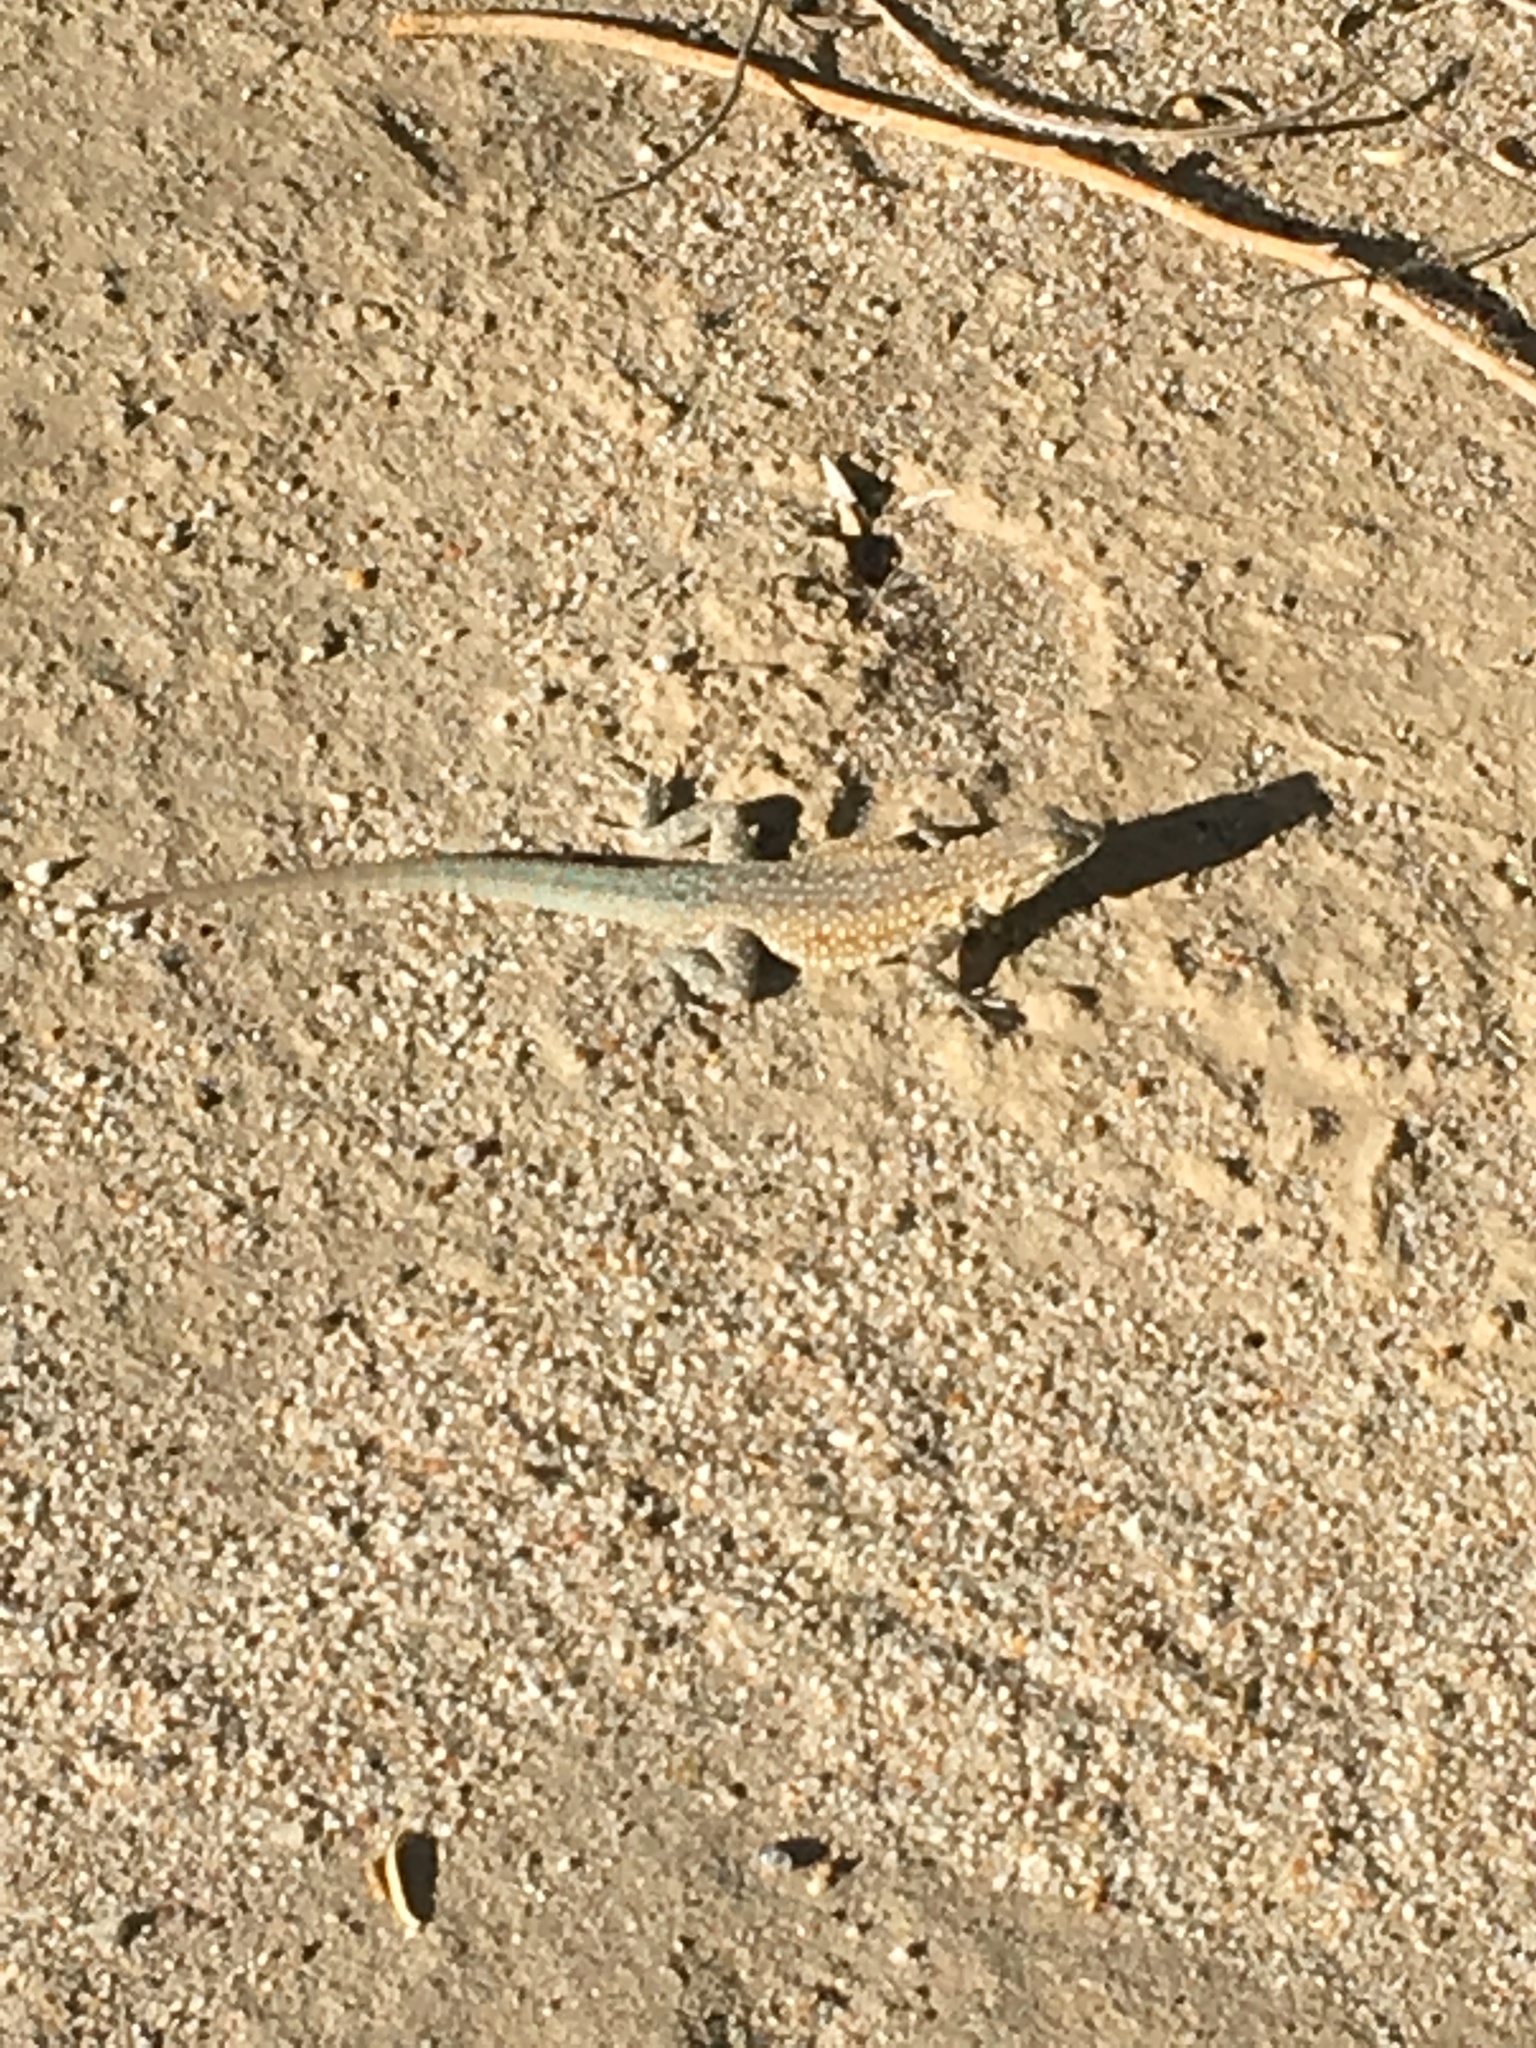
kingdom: Animalia
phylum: Chordata
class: Squamata
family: Phrynosomatidae
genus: Uta
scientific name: Uta stansburiana
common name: Side-blotched lizard
